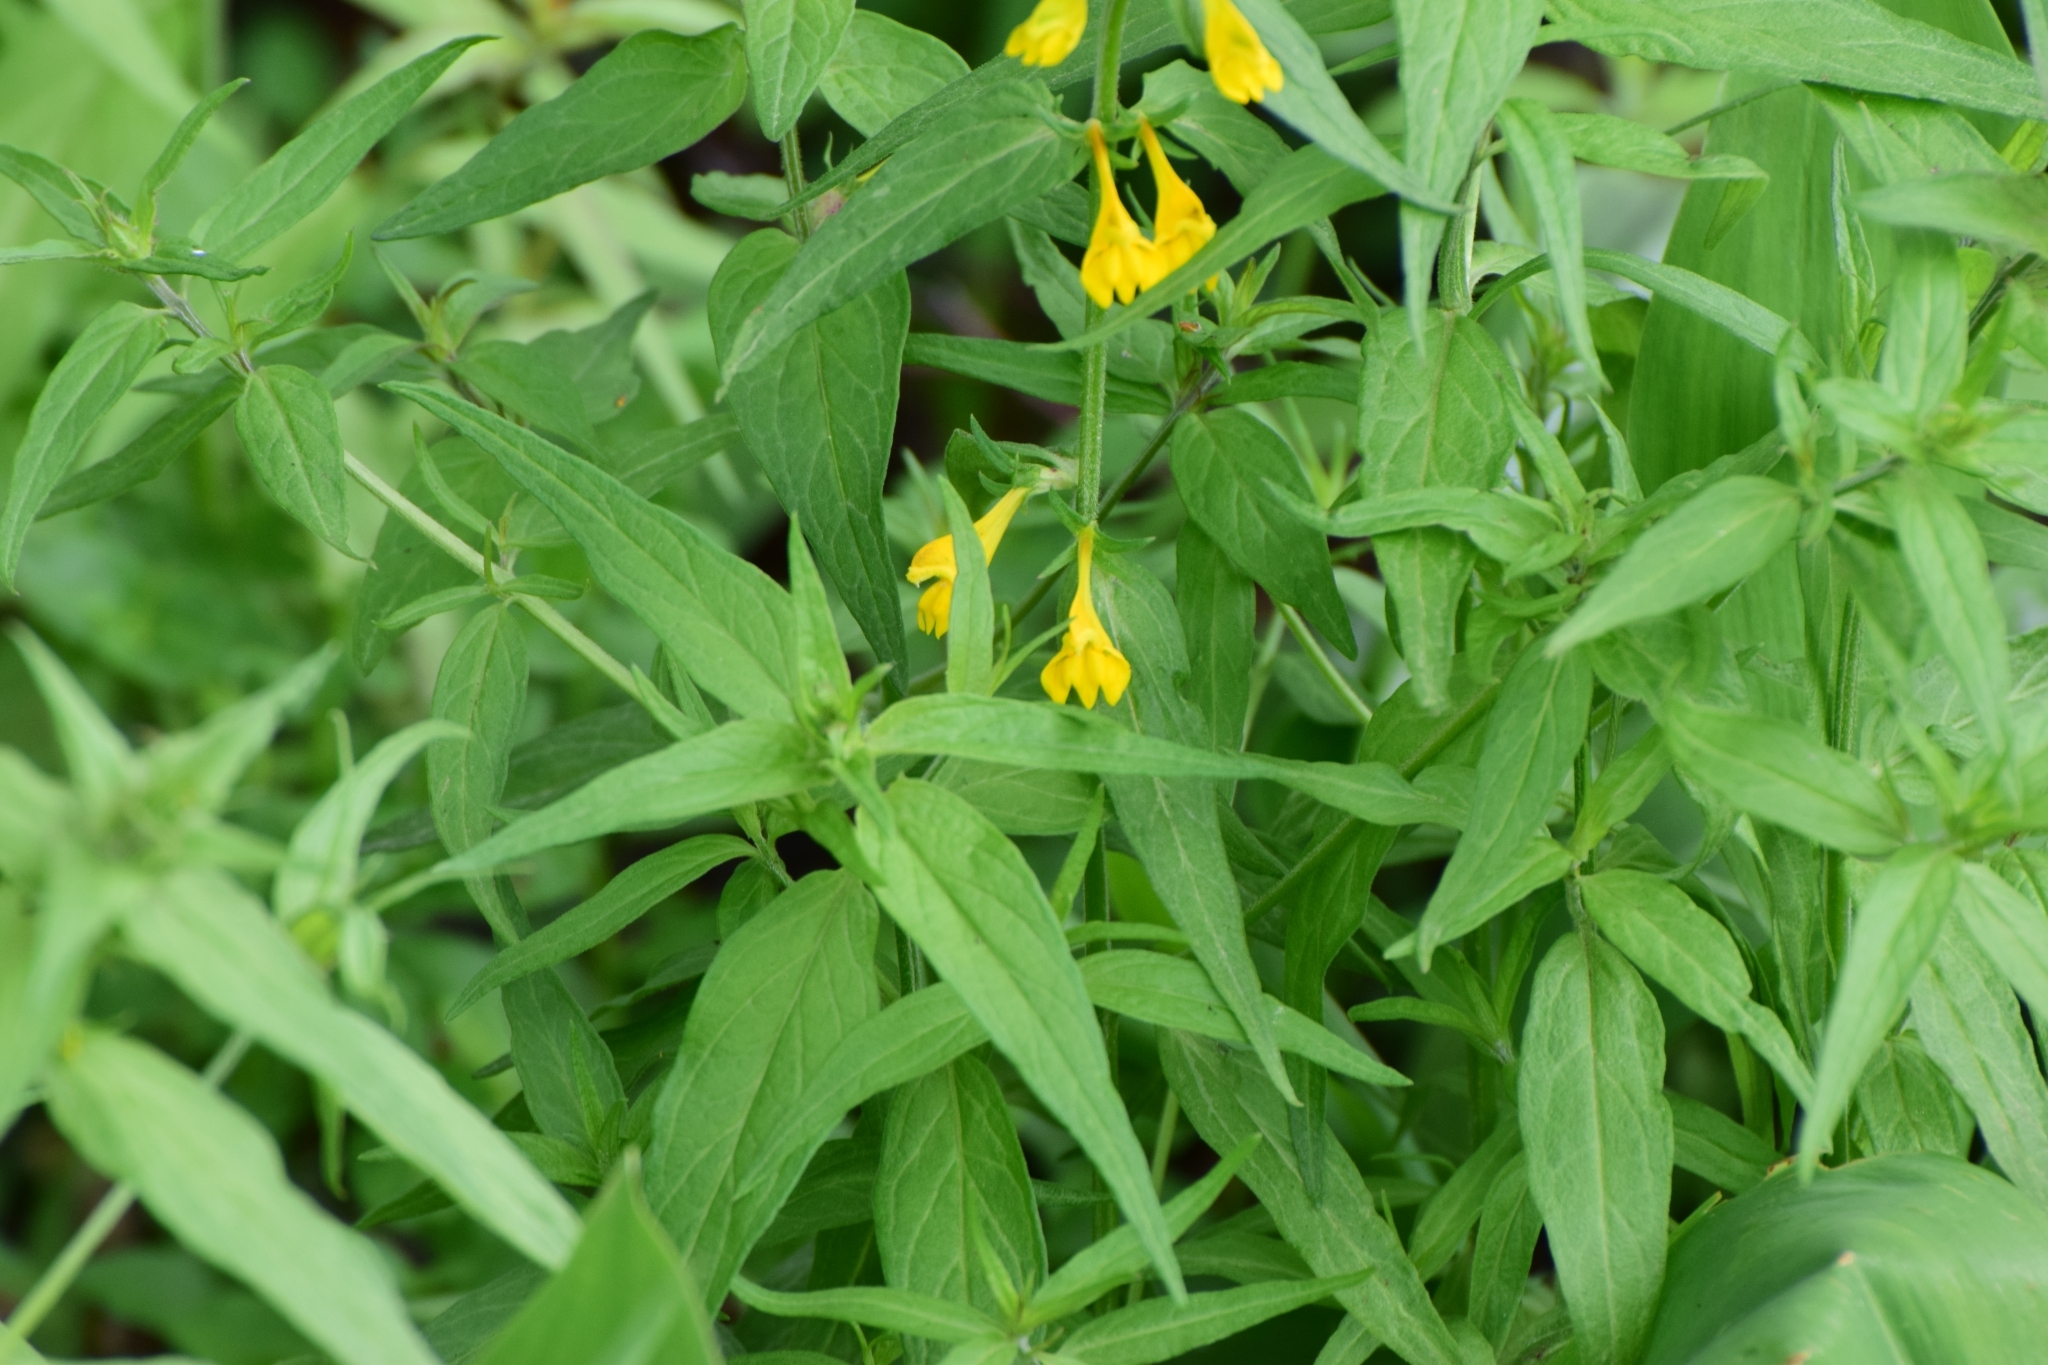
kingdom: Plantae
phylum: Tracheophyta
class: Magnoliopsida
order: Lamiales
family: Orobanchaceae
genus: Melampyrum
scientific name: Melampyrum nemorosum
